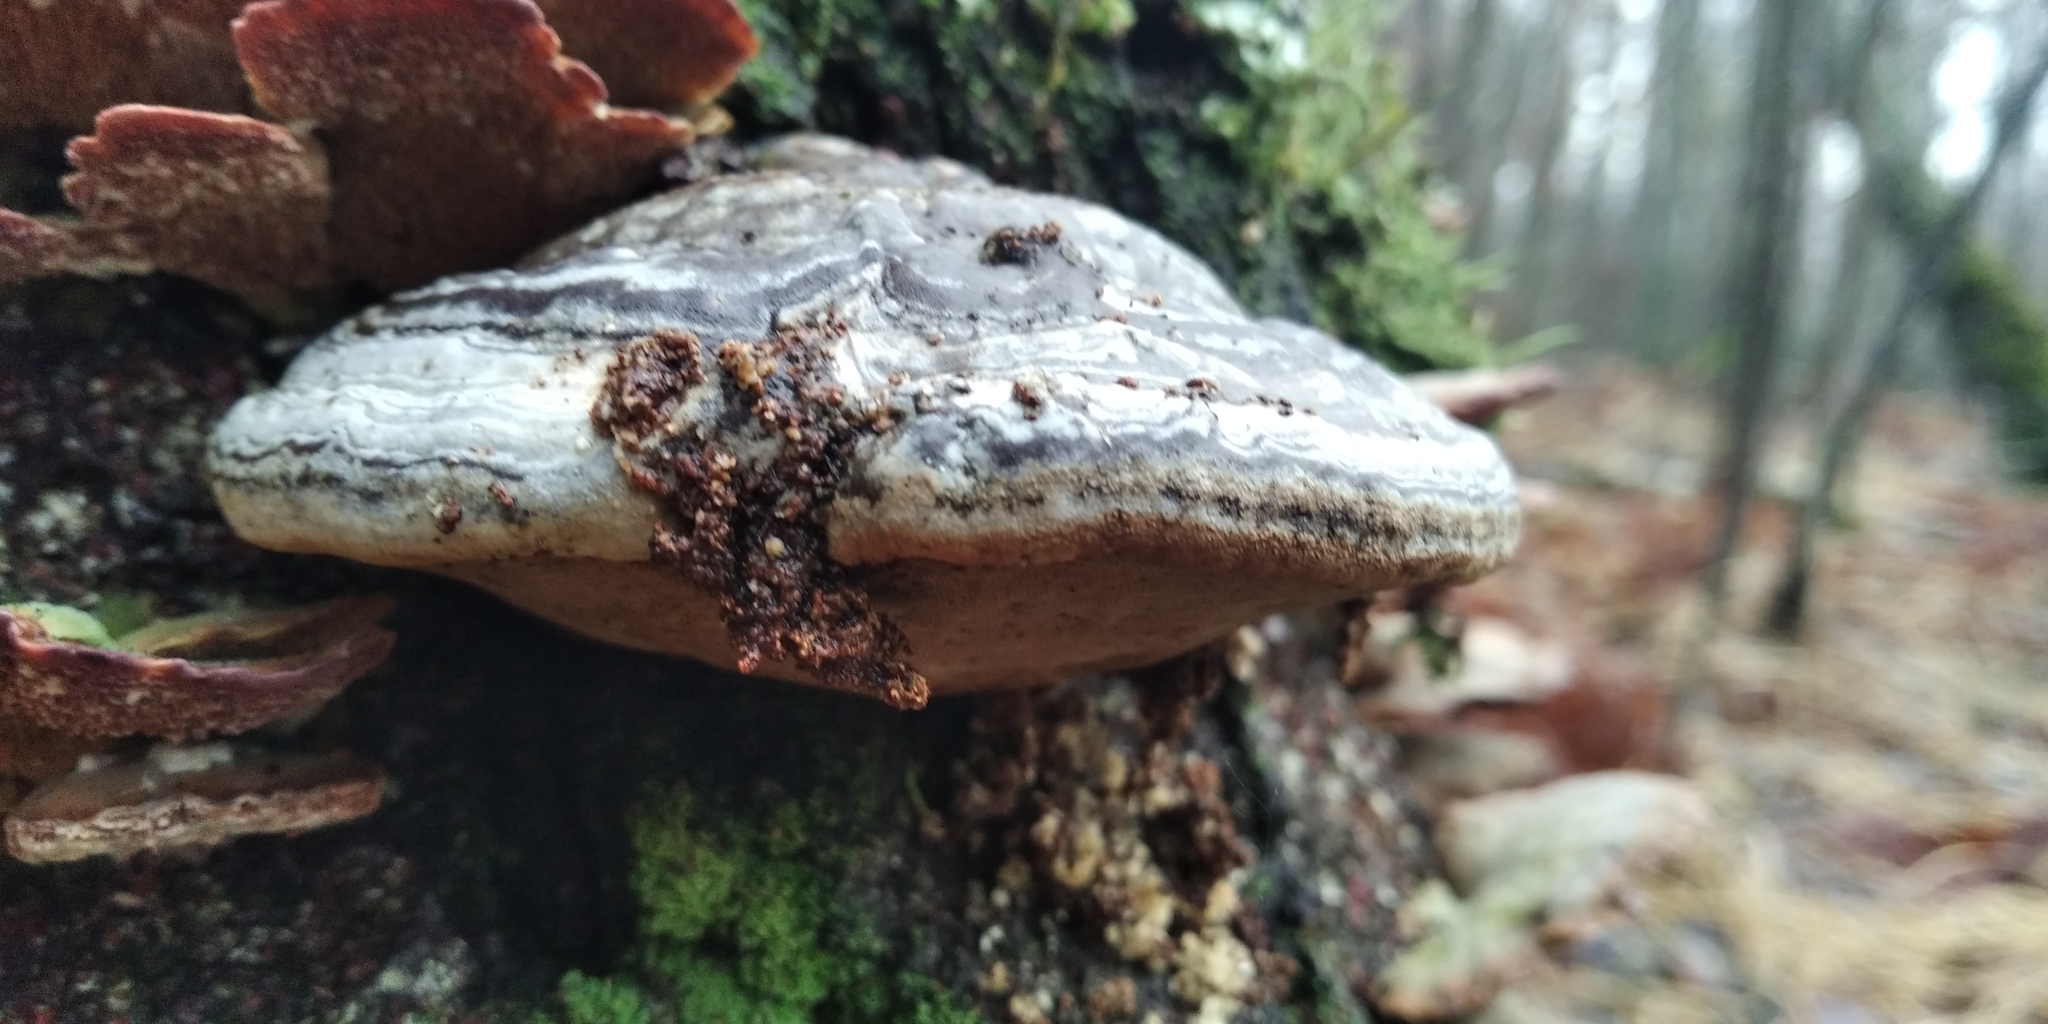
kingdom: Fungi
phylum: Basidiomycota
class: Agaricomycetes
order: Polyporales
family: Polyporaceae
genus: Fomes
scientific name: Fomes fomentarius
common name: Hoof fungus
